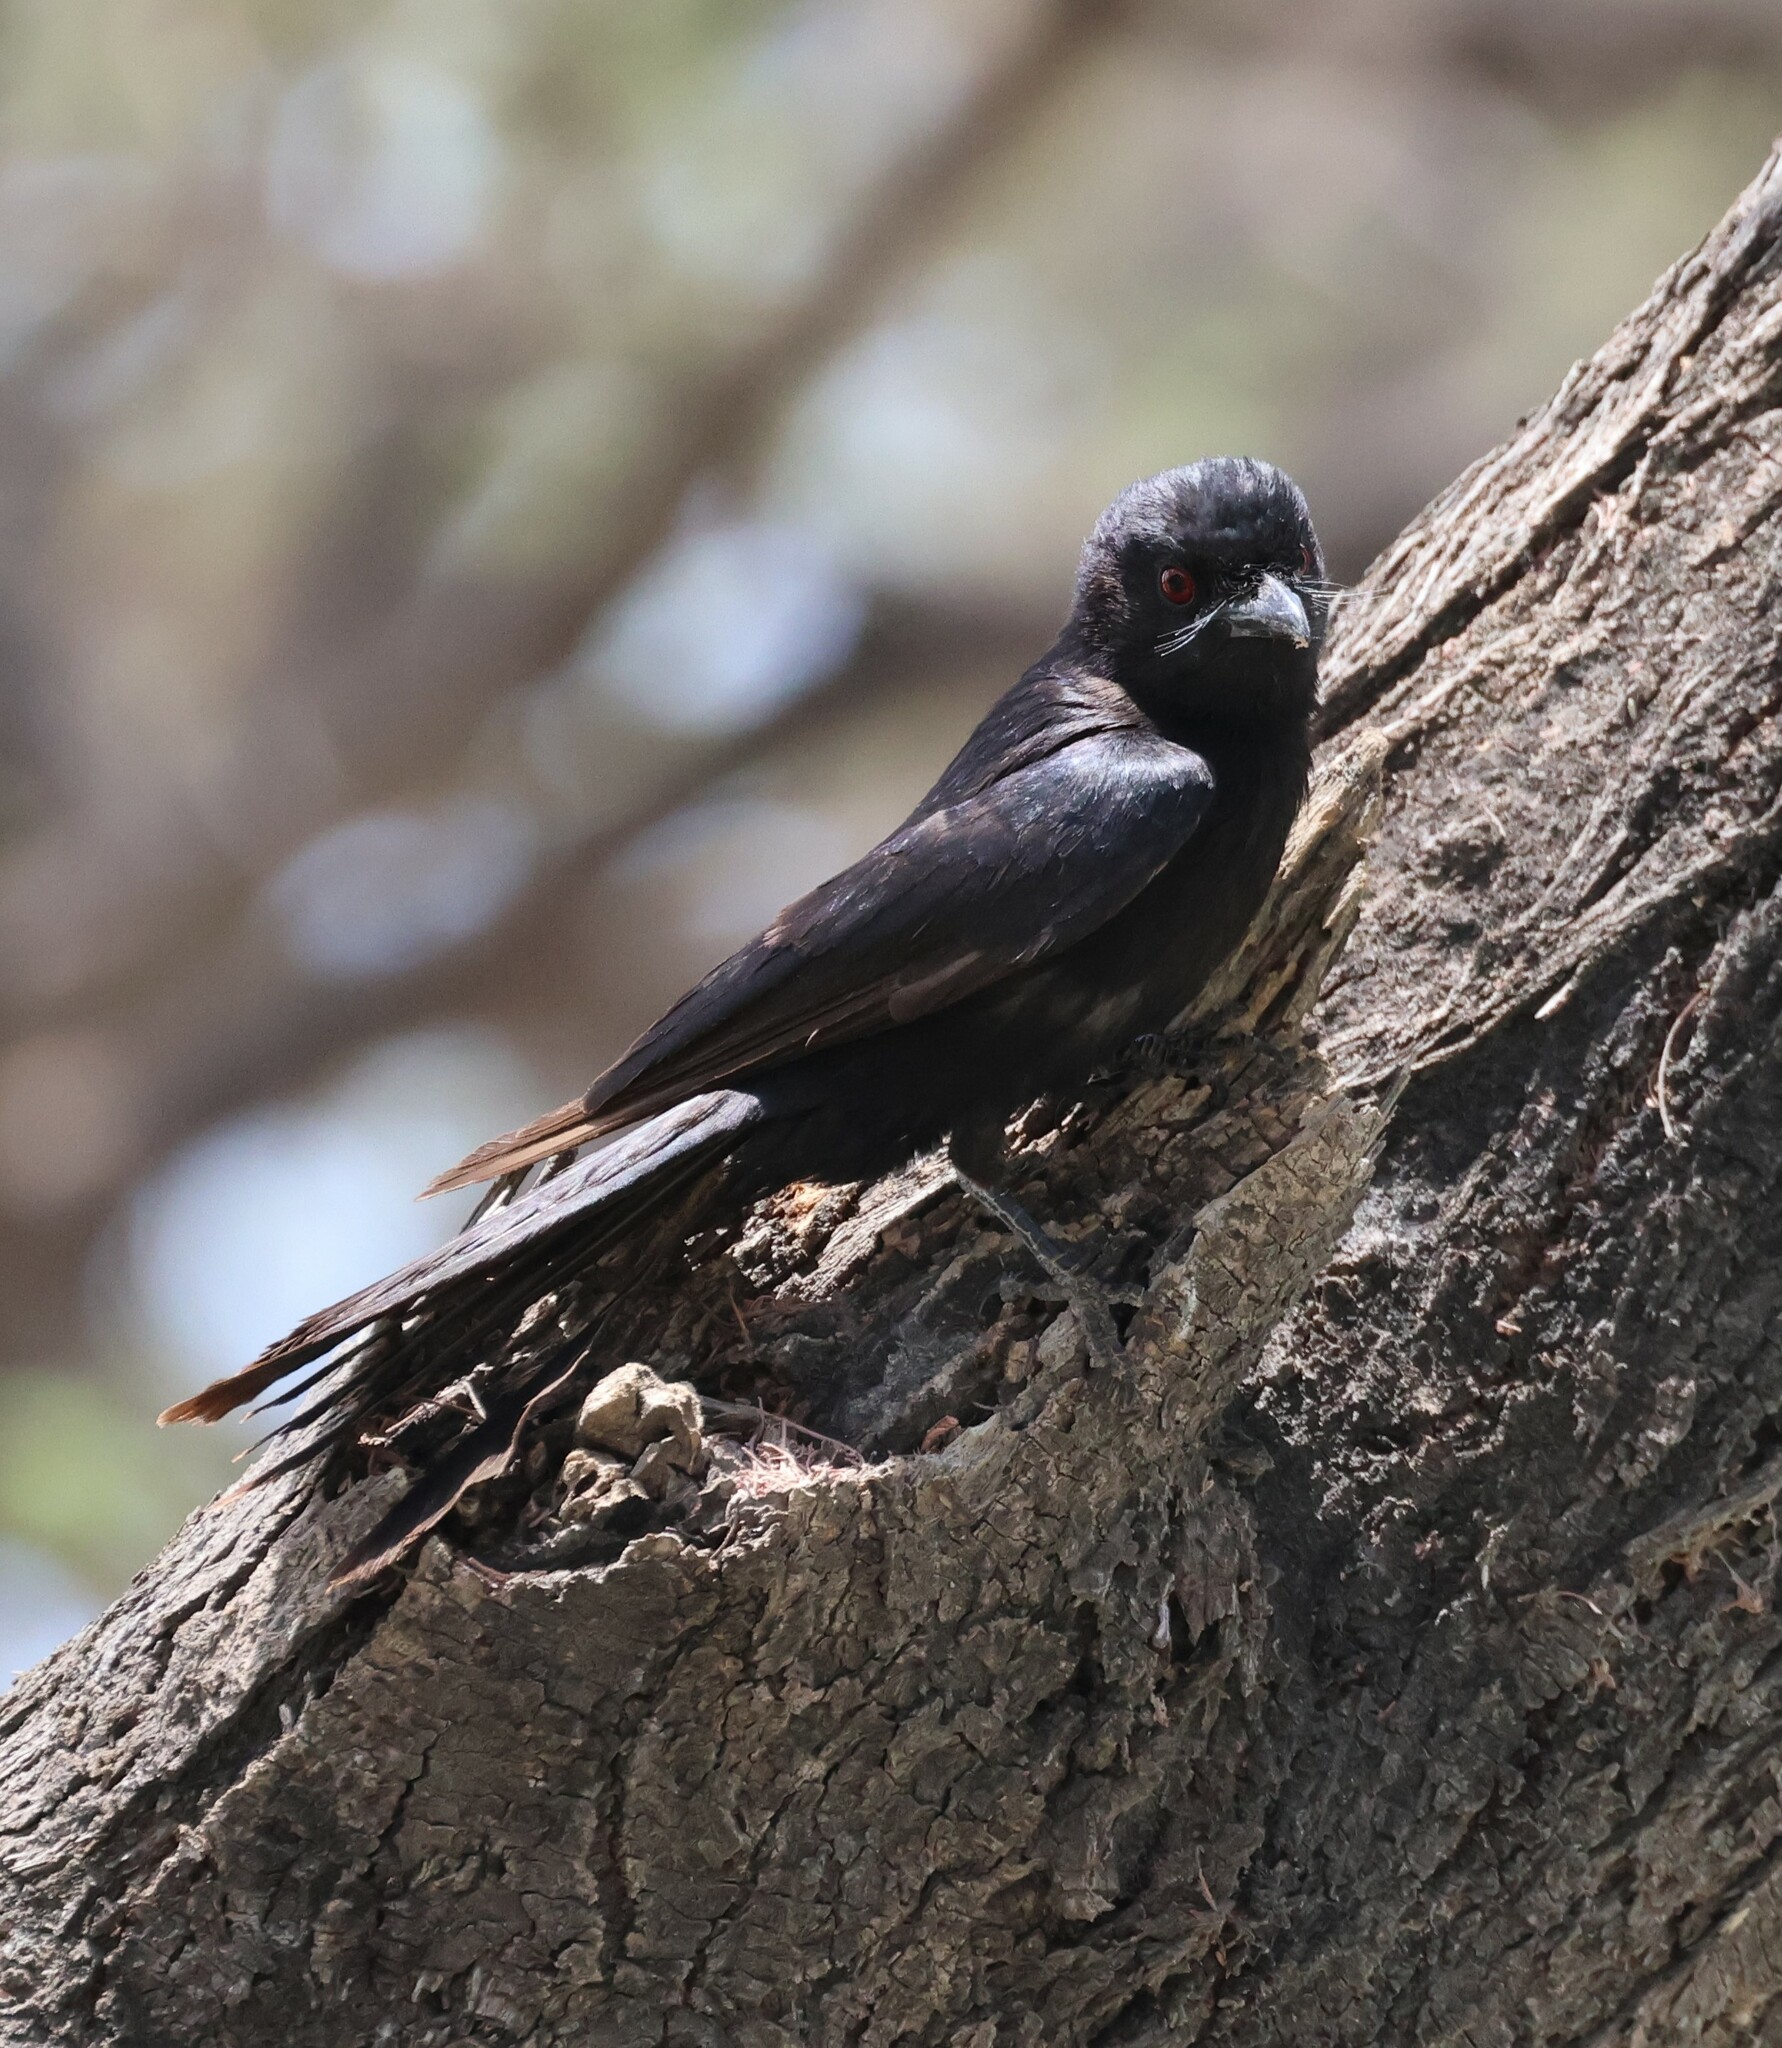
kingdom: Animalia
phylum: Chordata
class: Aves
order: Passeriformes
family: Dicruridae
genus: Dicrurus
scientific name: Dicrurus adsimilis
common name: Fork-tailed drongo
